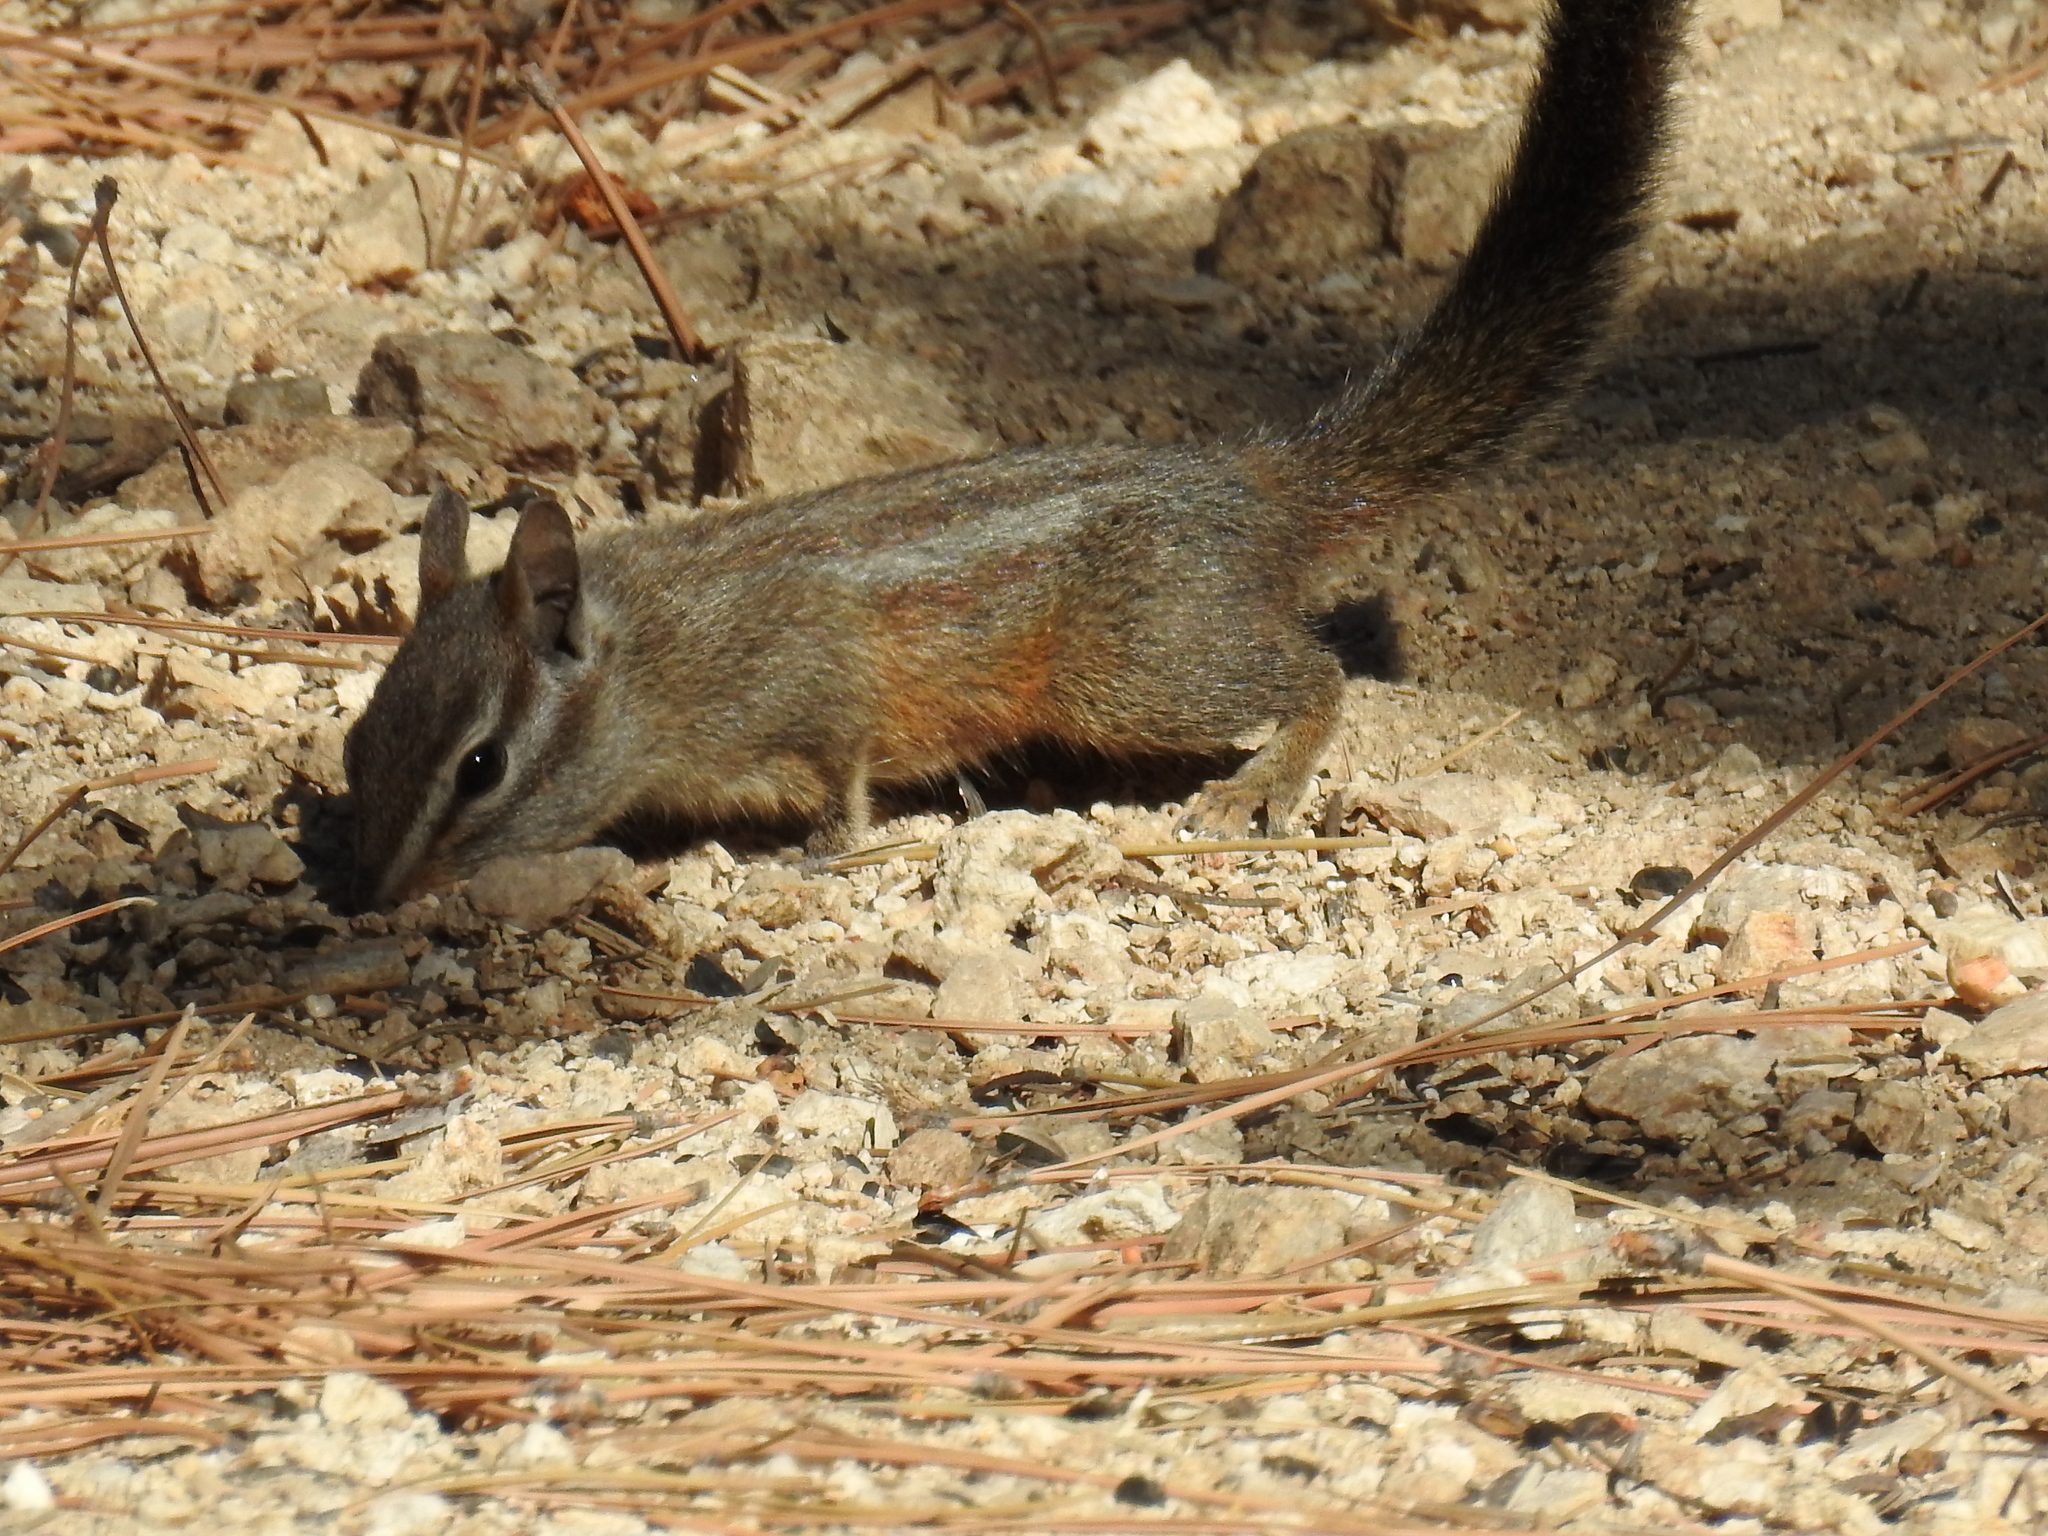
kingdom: Animalia
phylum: Chordata
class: Mammalia
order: Rodentia
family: Sciuridae
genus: Tamias
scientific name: Tamias merriami
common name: Merriam's chipmunk
